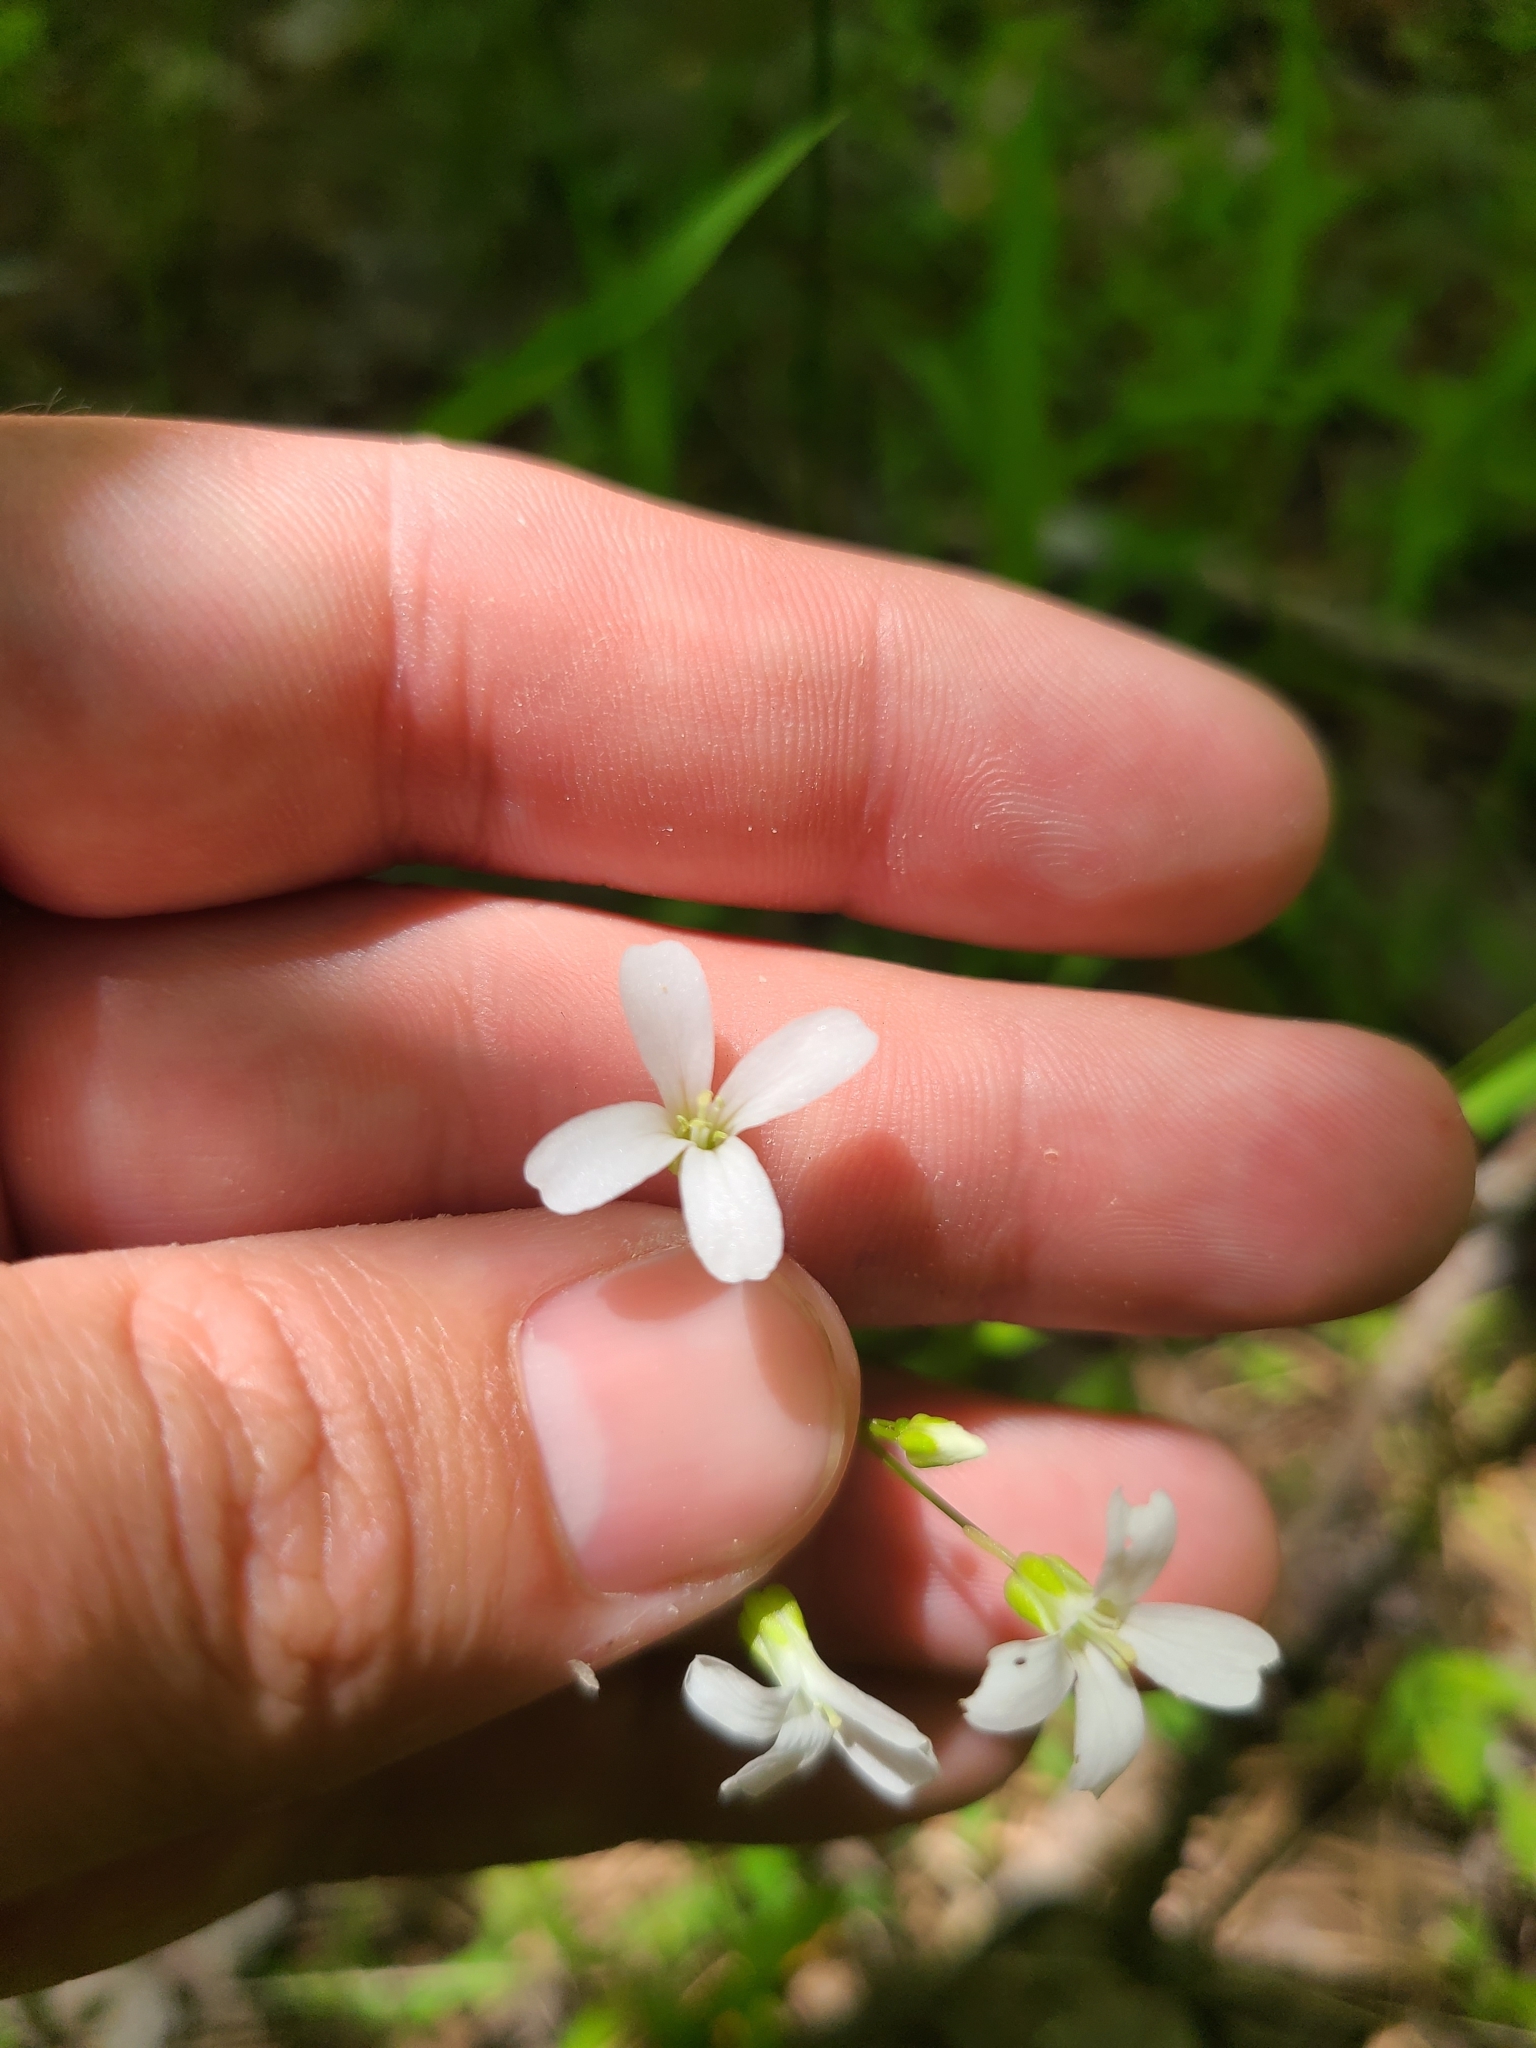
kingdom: Plantae
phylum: Tracheophyta
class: Magnoliopsida
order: Brassicales
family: Brassicaceae
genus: Cardamine
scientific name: Cardamine bulbosa
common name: Spring cress
